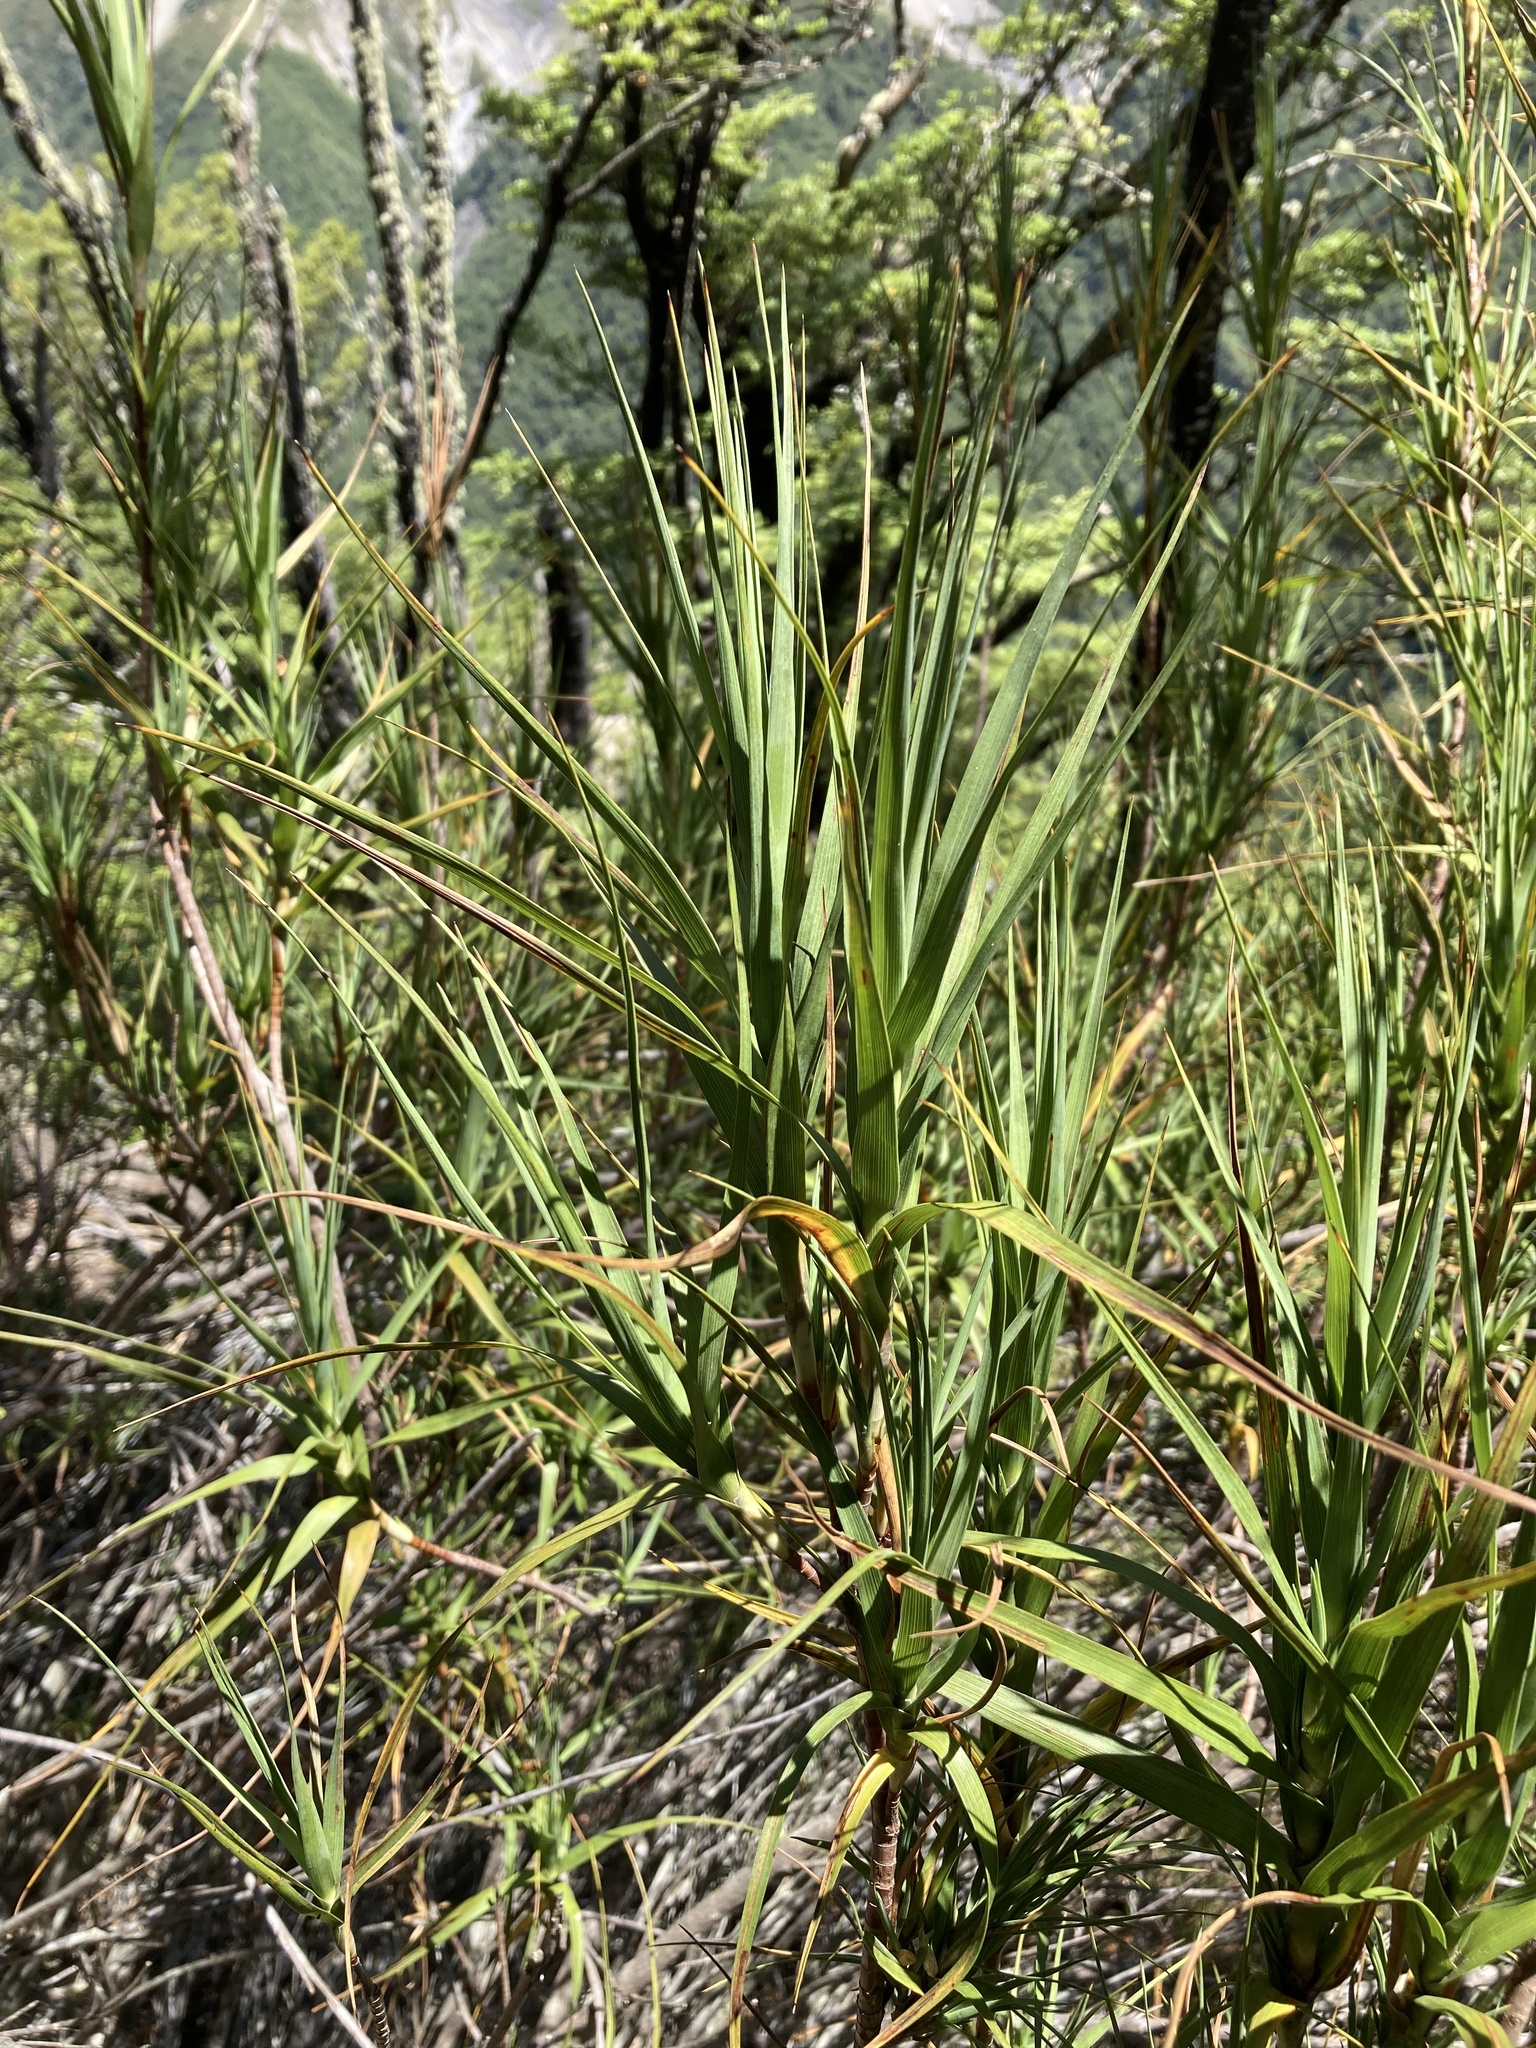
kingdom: Plantae
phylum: Tracheophyta
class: Magnoliopsida
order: Ericales
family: Ericaceae
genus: Dracophyllum
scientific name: Dracophyllum longifolium
